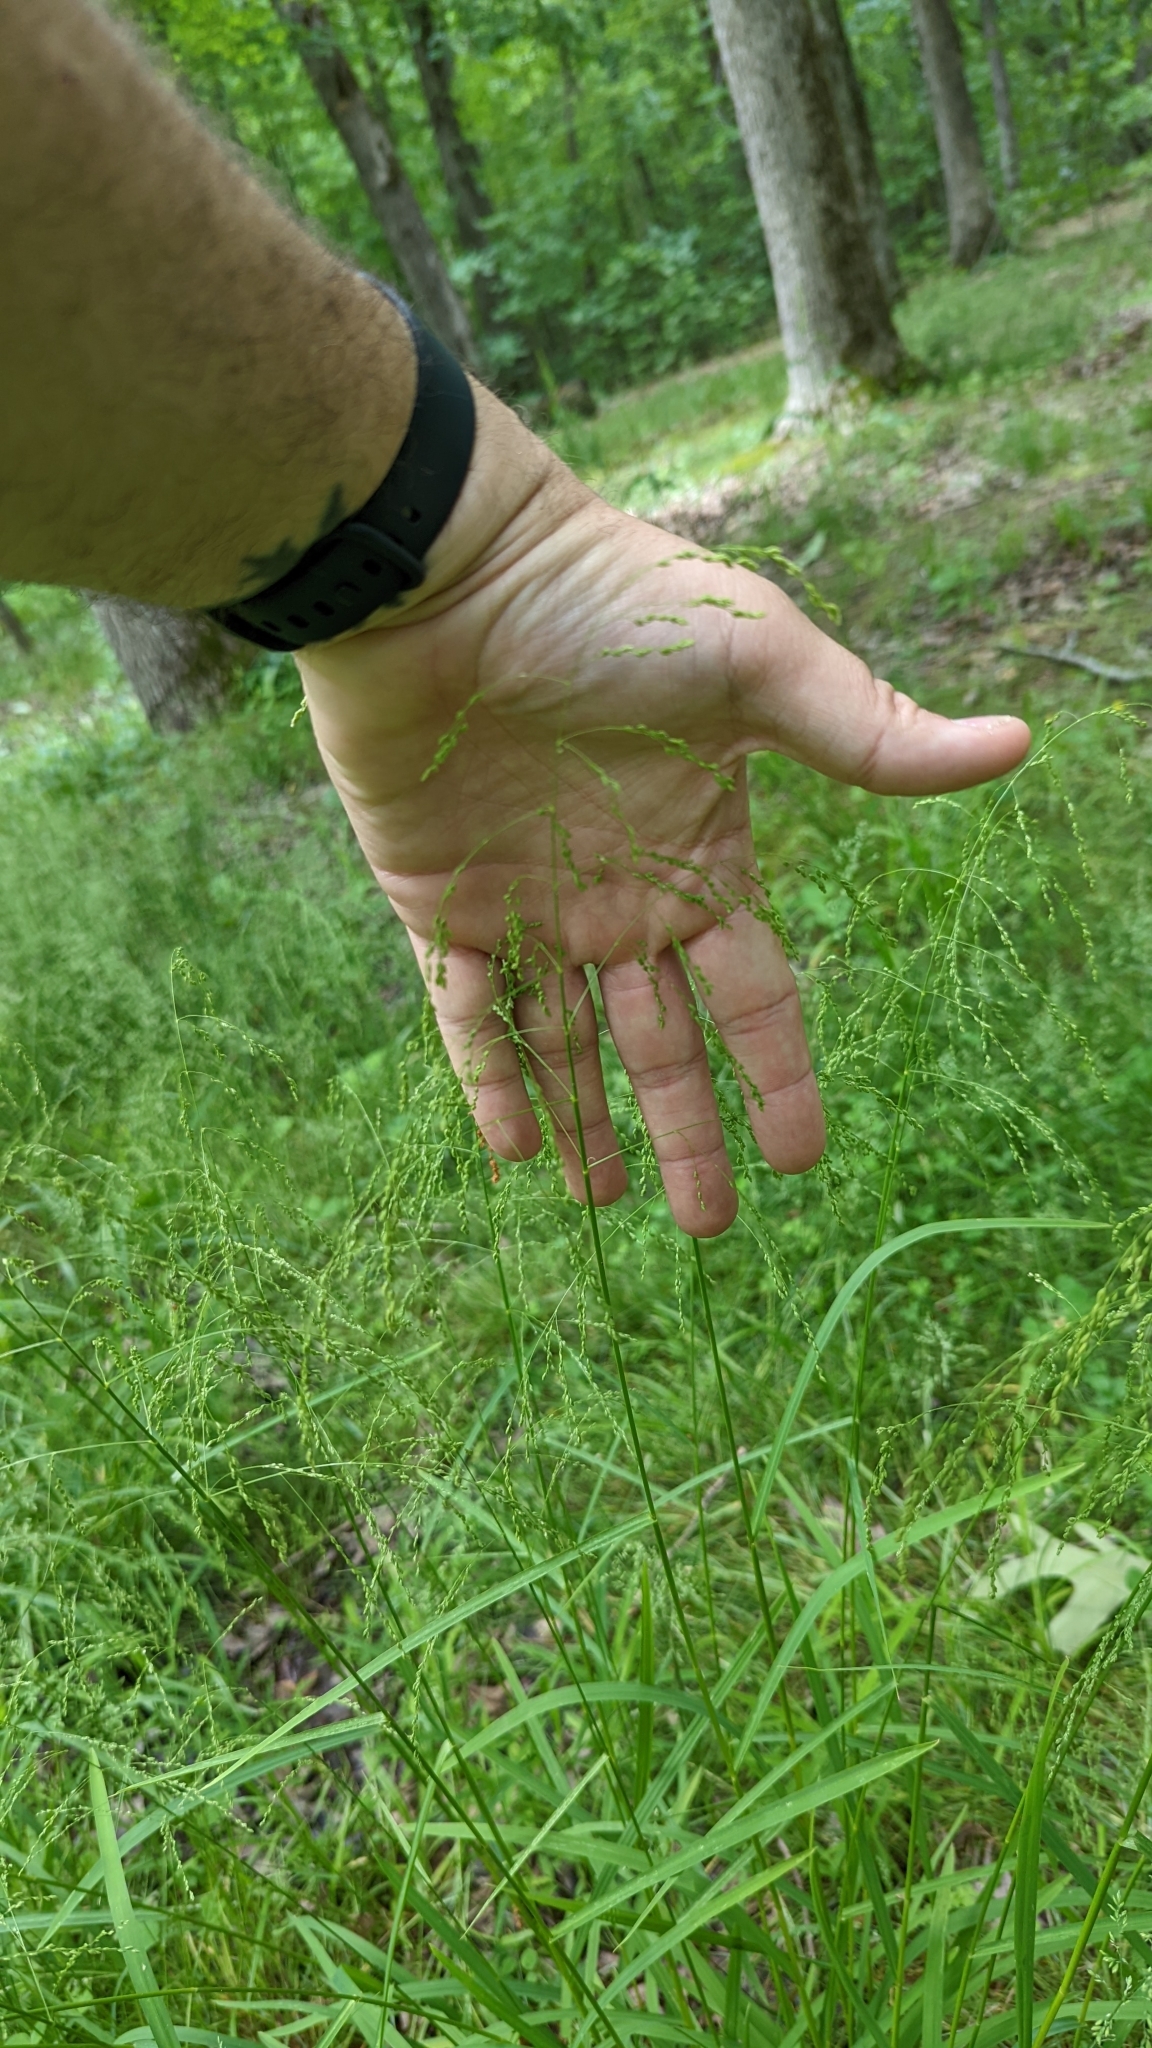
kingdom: Plantae
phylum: Tracheophyta
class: Liliopsida
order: Poales
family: Poaceae
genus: Glyceria
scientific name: Glyceria striata
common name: Fowl manna grass
